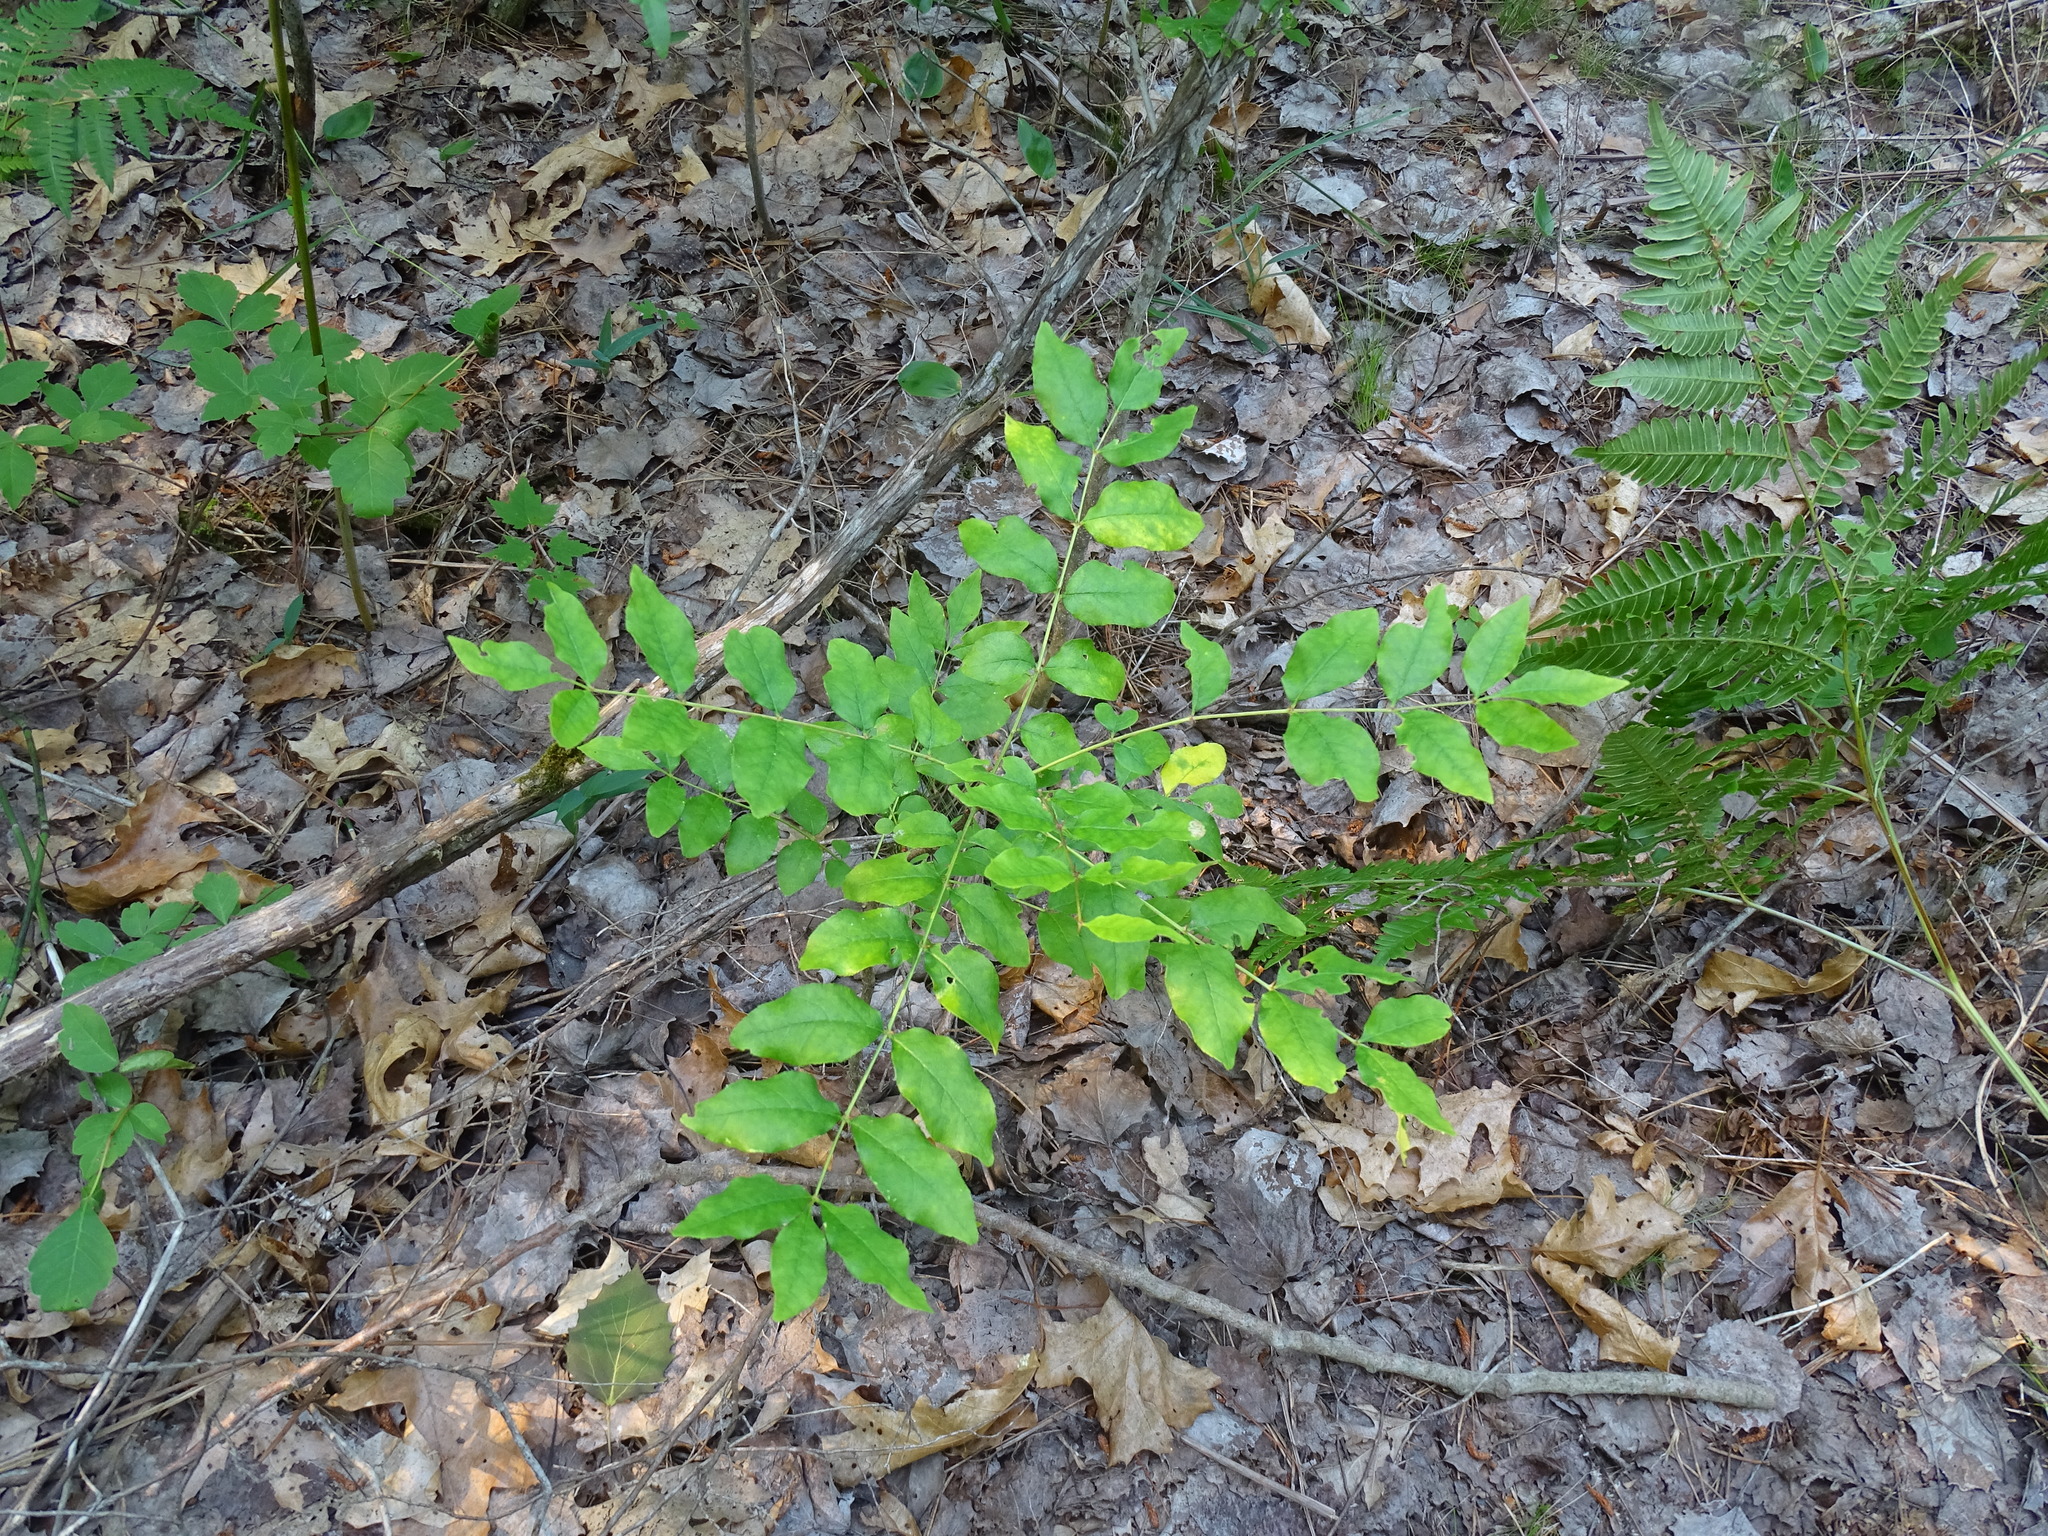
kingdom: Plantae
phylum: Tracheophyta
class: Magnoliopsida
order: Sapindales
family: Rutaceae
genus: Zanthoxylum
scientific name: Zanthoxylum americanum
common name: Northern prickly-ash
